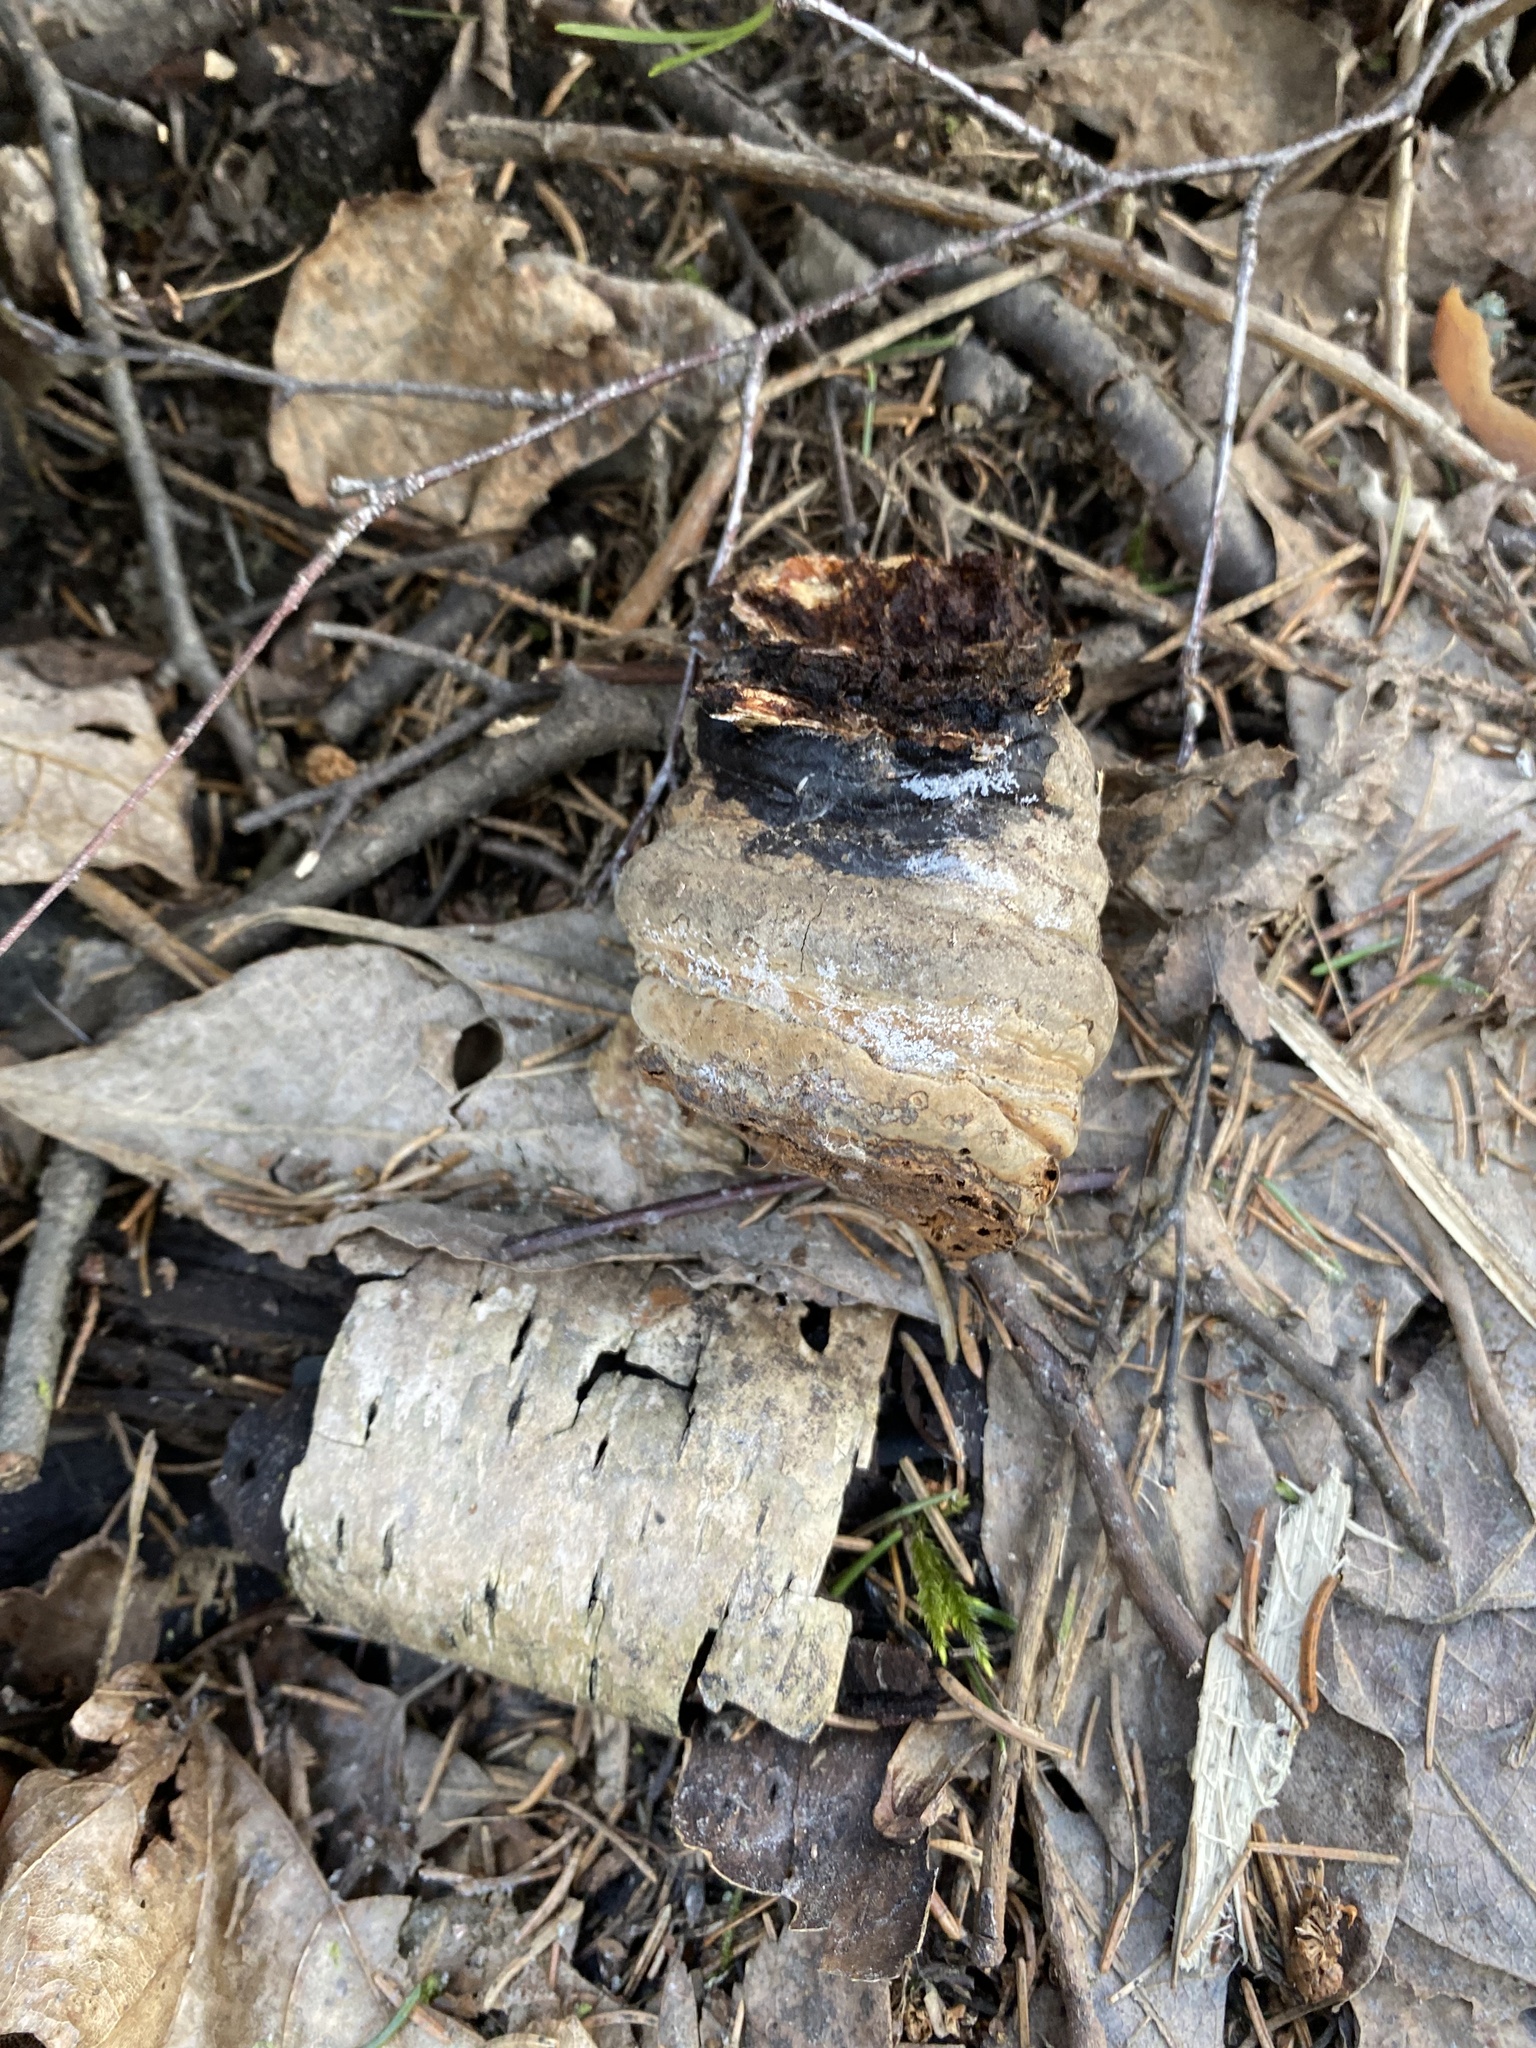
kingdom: Fungi
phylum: Basidiomycota
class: Agaricomycetes
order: Polyporales
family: Polyporaceae
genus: Fomes
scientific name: Fomes fomentarius
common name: Hoof fungus
